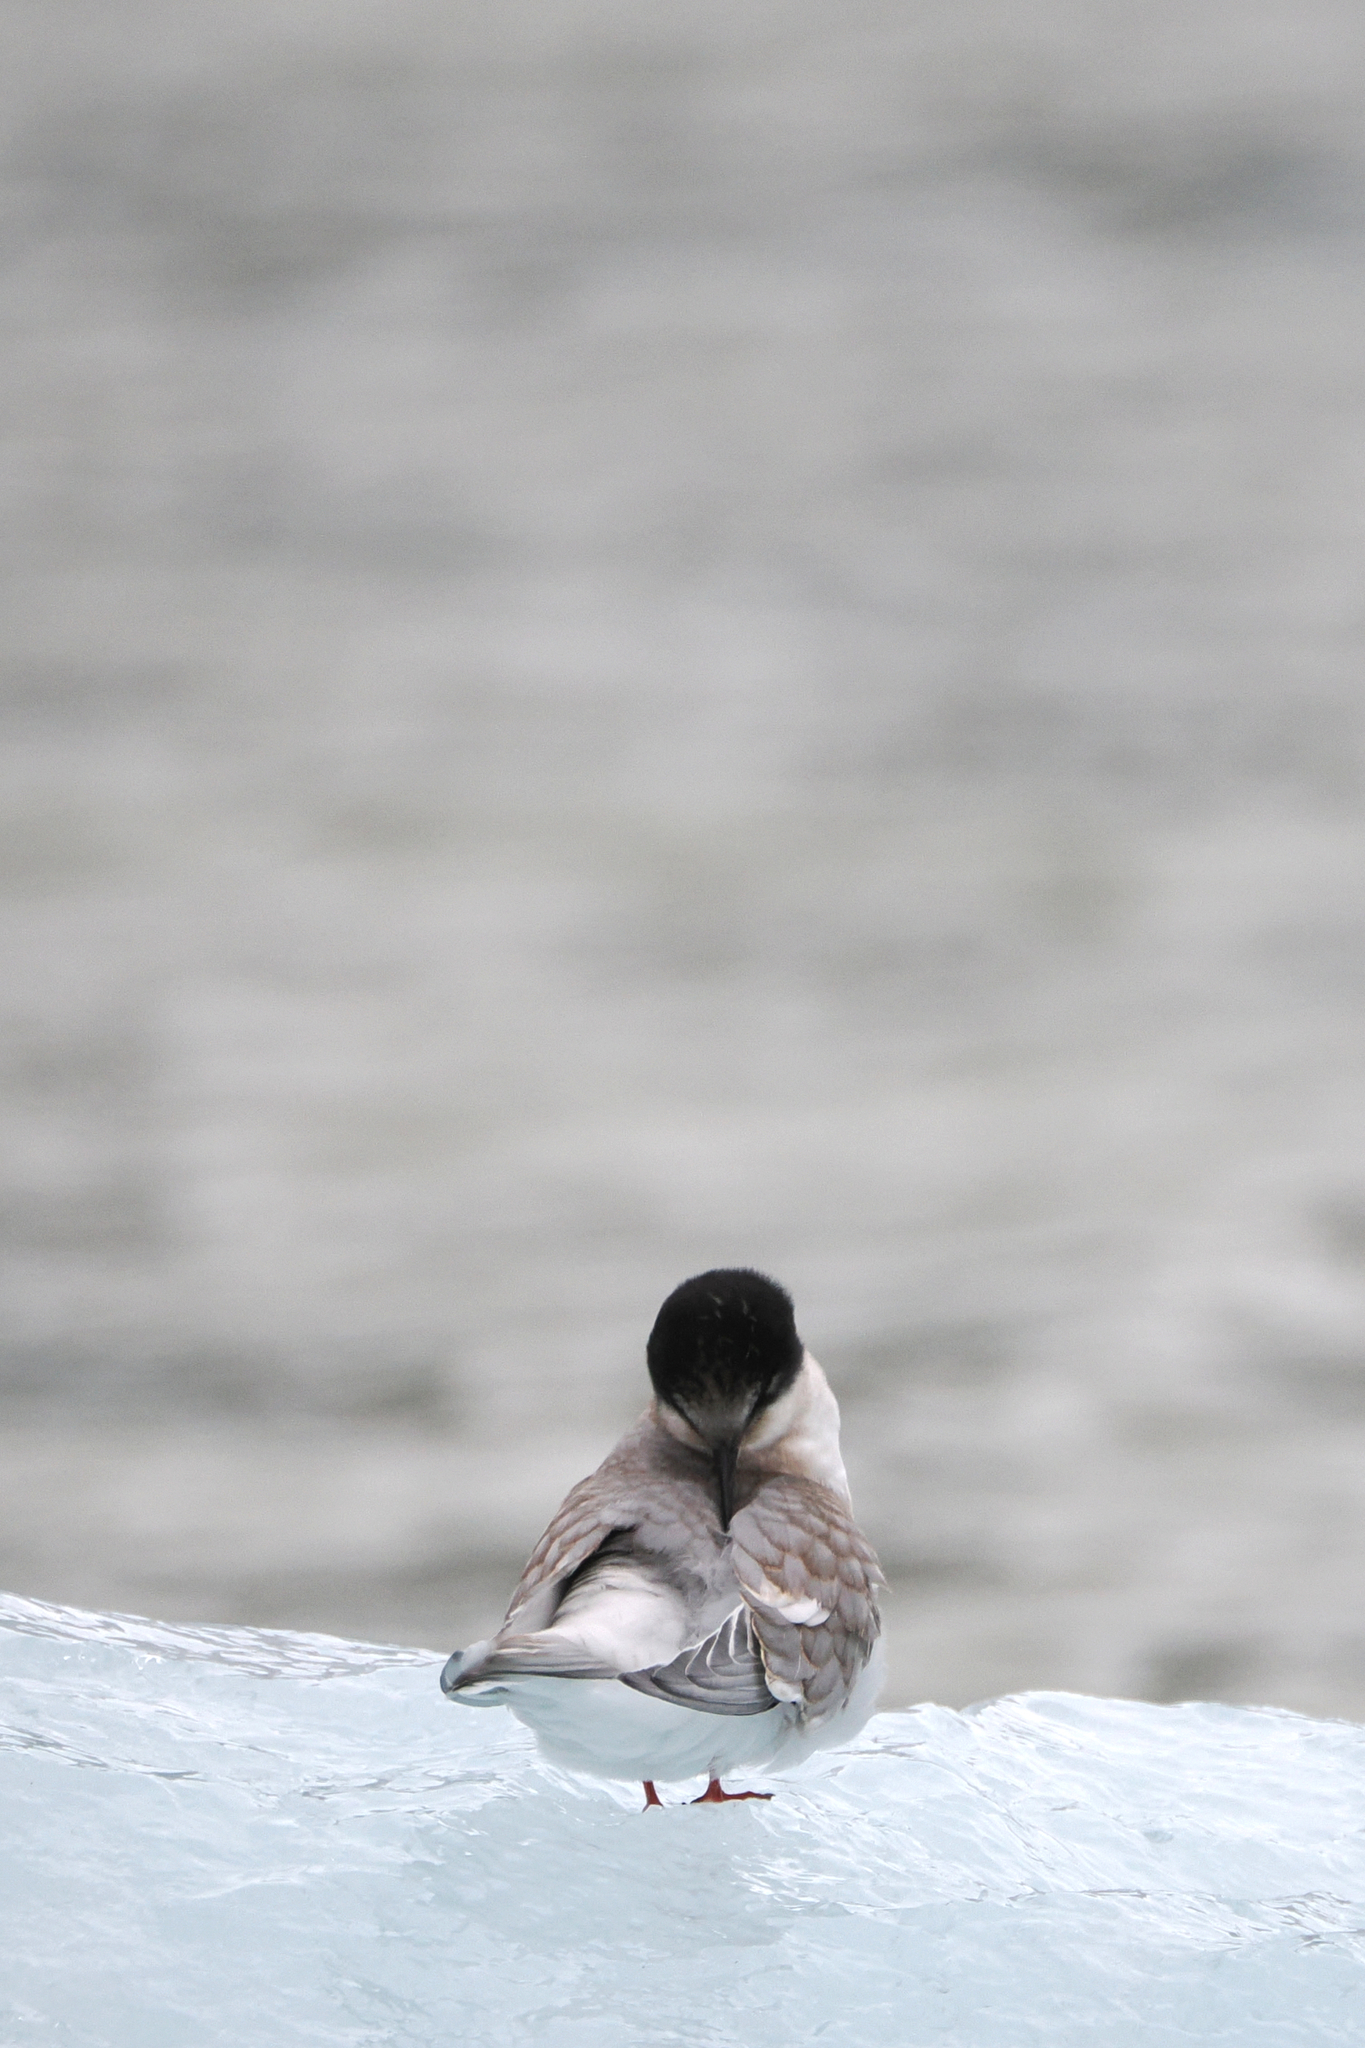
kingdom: Animalia
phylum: Chordata
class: Aves
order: Charadriiformes
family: Laridae
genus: Sterna
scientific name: Sterna paradisaea
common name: Arctic tern
